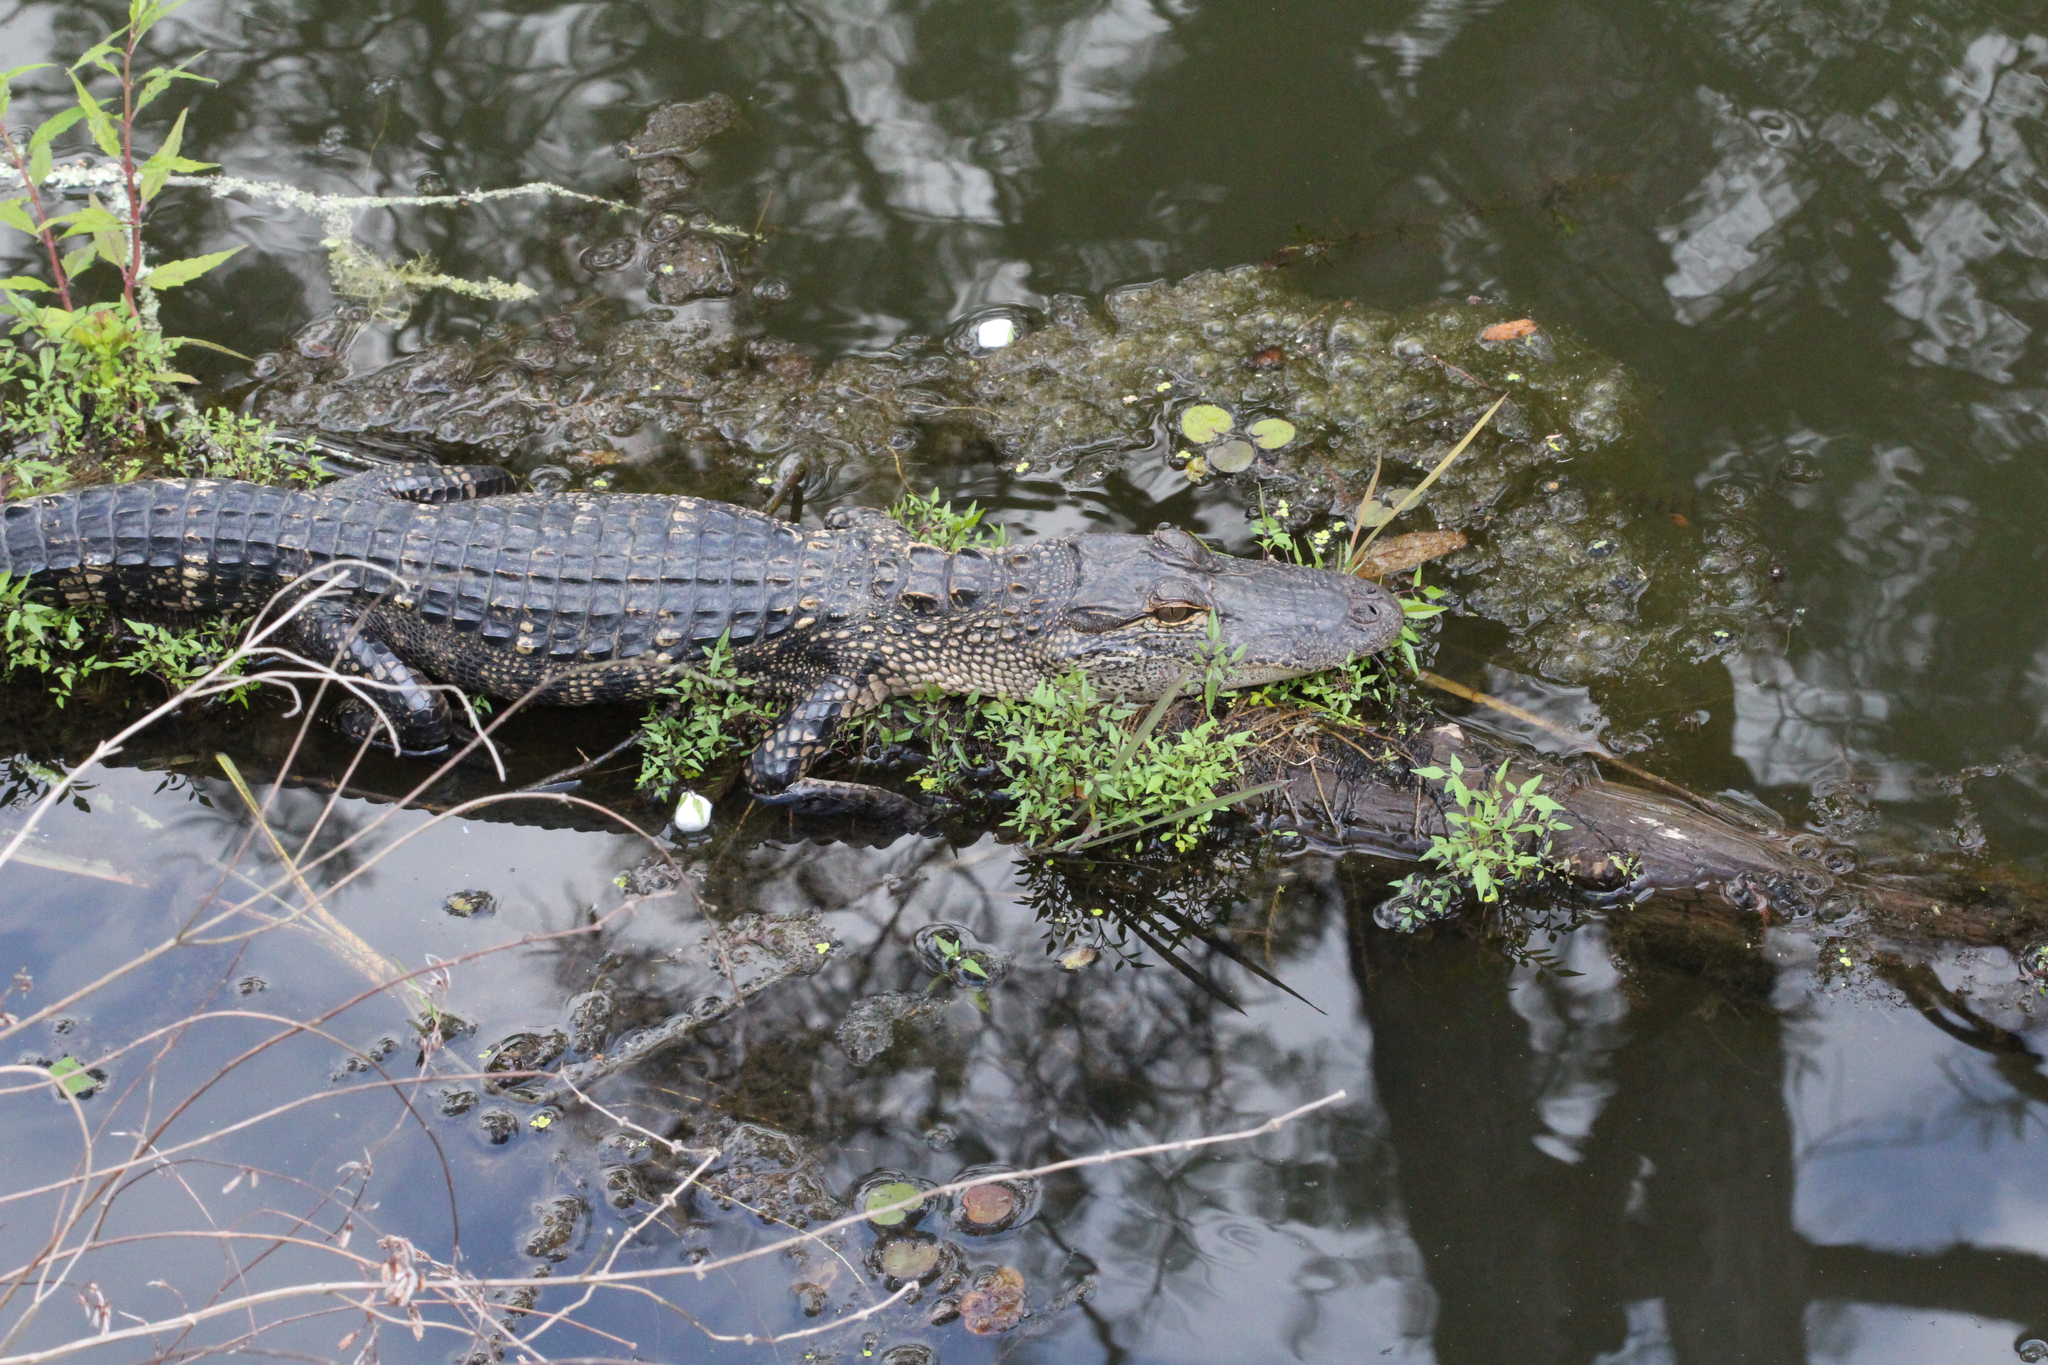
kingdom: Animalia
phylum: Chordata
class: Crocodylia
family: Alligatoridae
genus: Alligator
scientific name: Alligator mississippiensis
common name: American alligator
